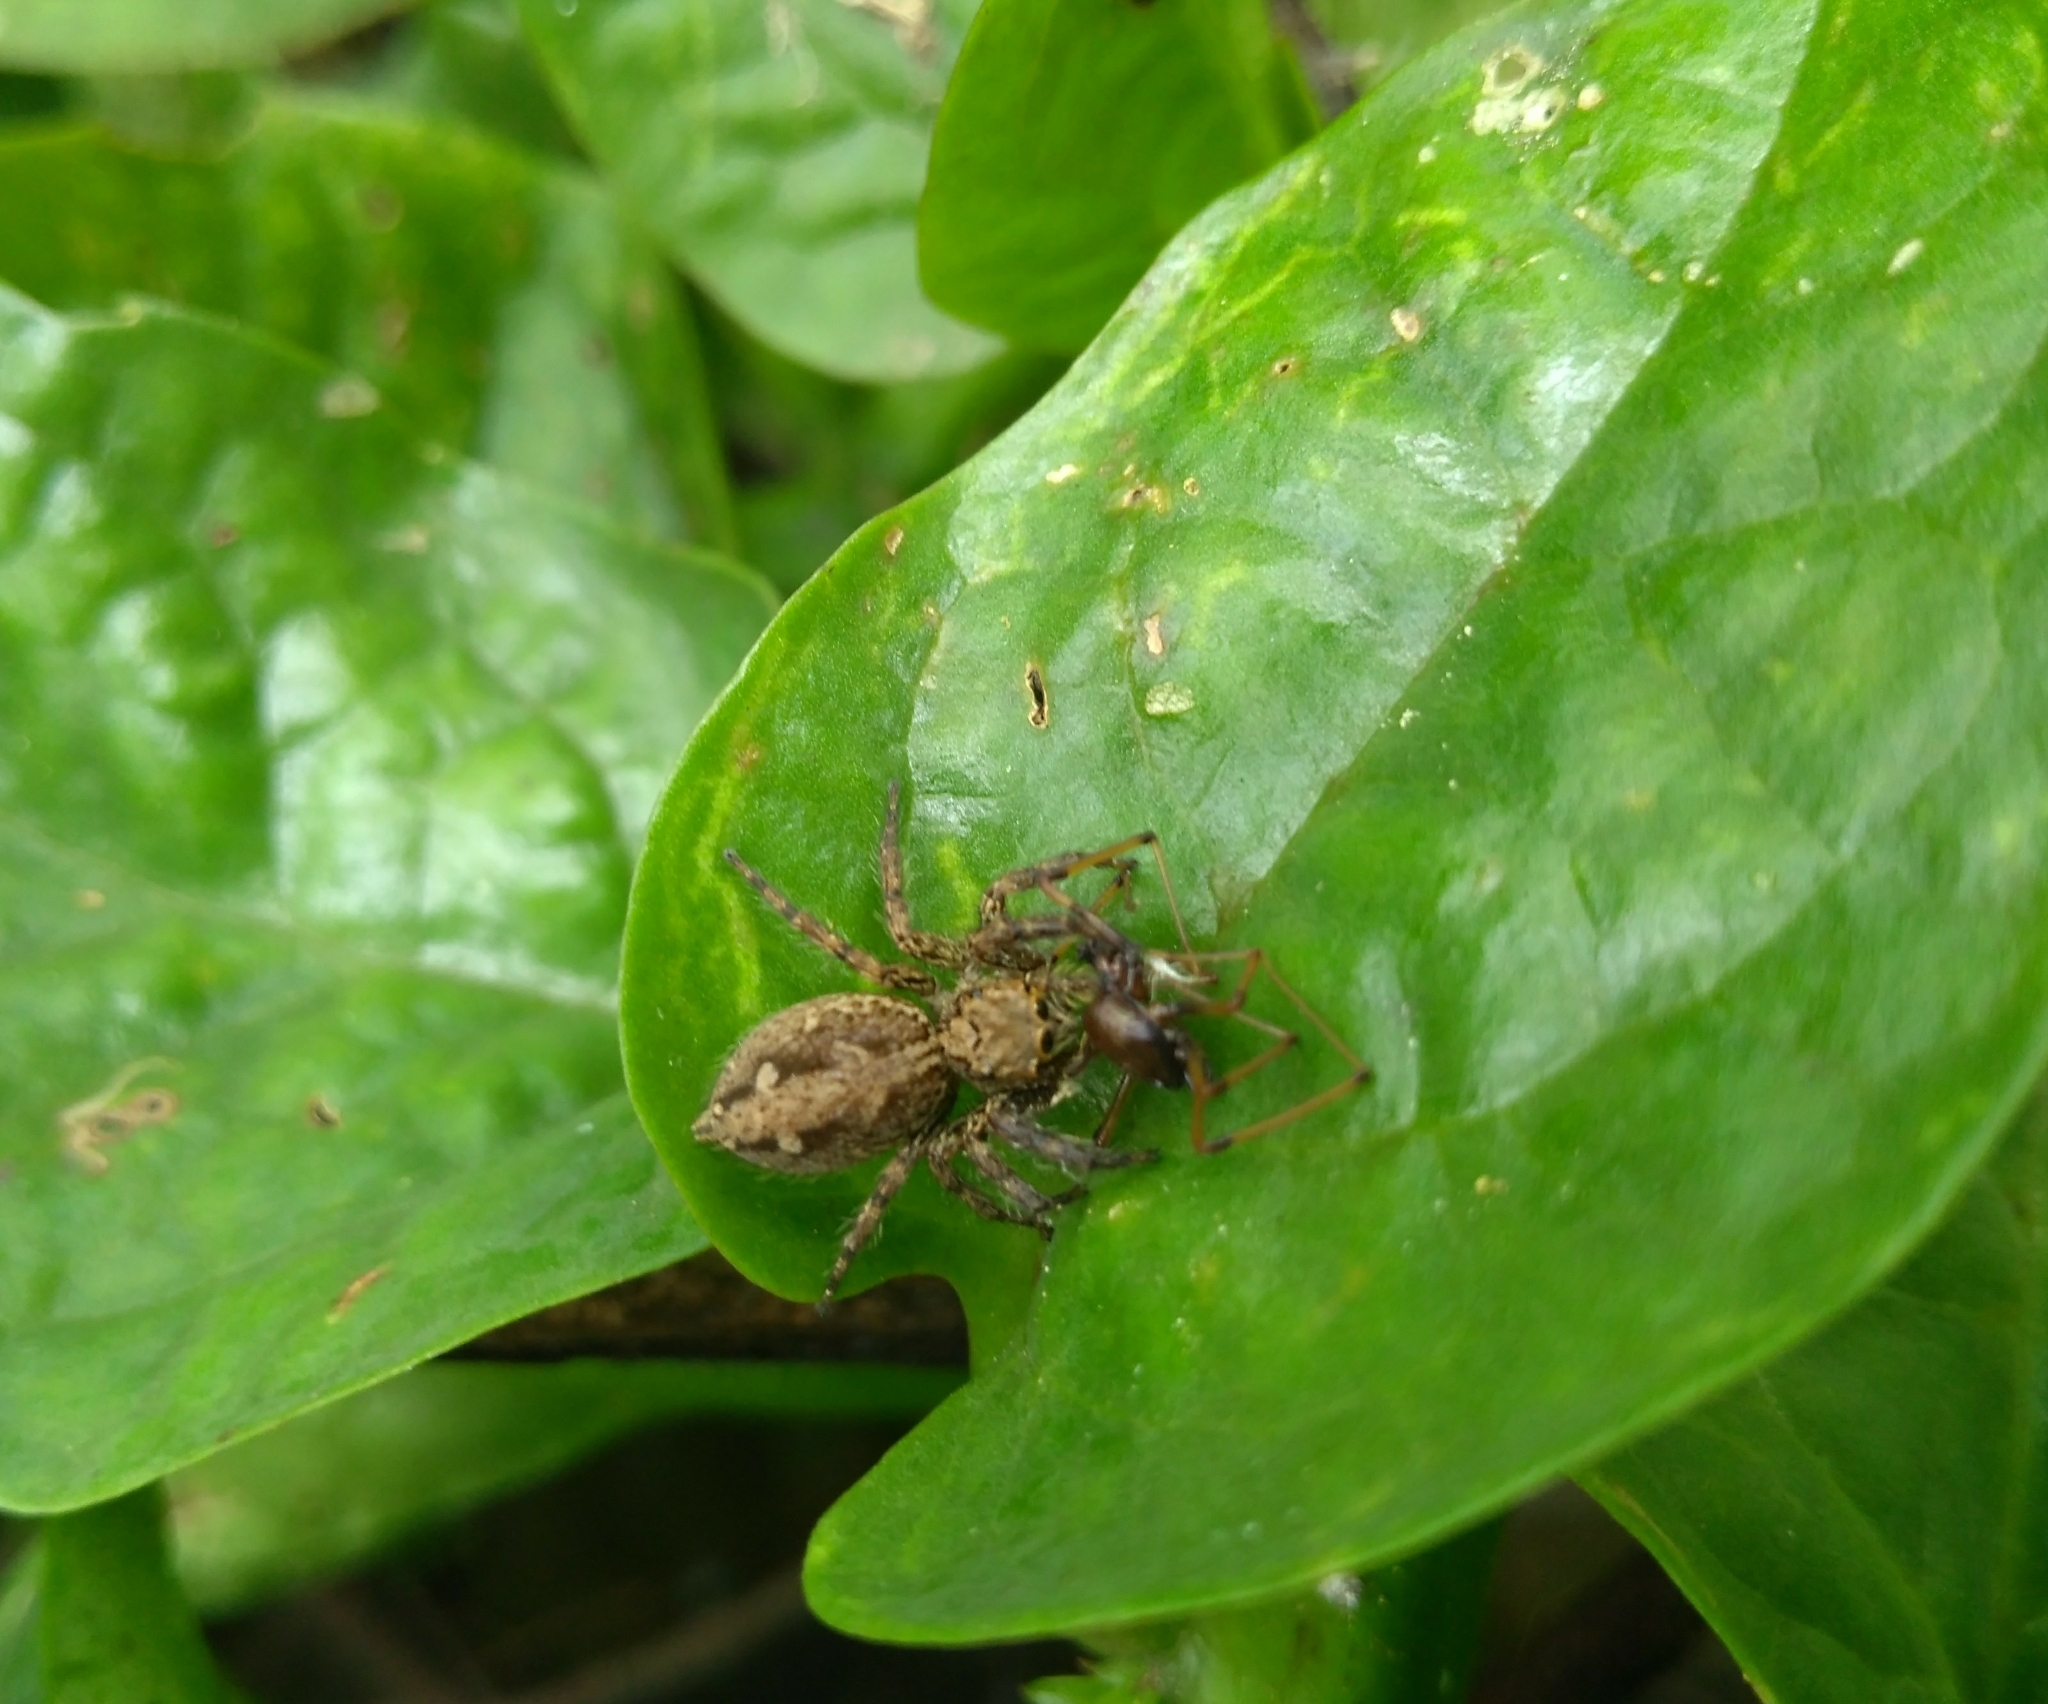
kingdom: Animalia
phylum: Arthropoda
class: Arachnida
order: Araneae
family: Salticidae
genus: Plexippus
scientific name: Plexippus paykulli
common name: Pantropical jumper
